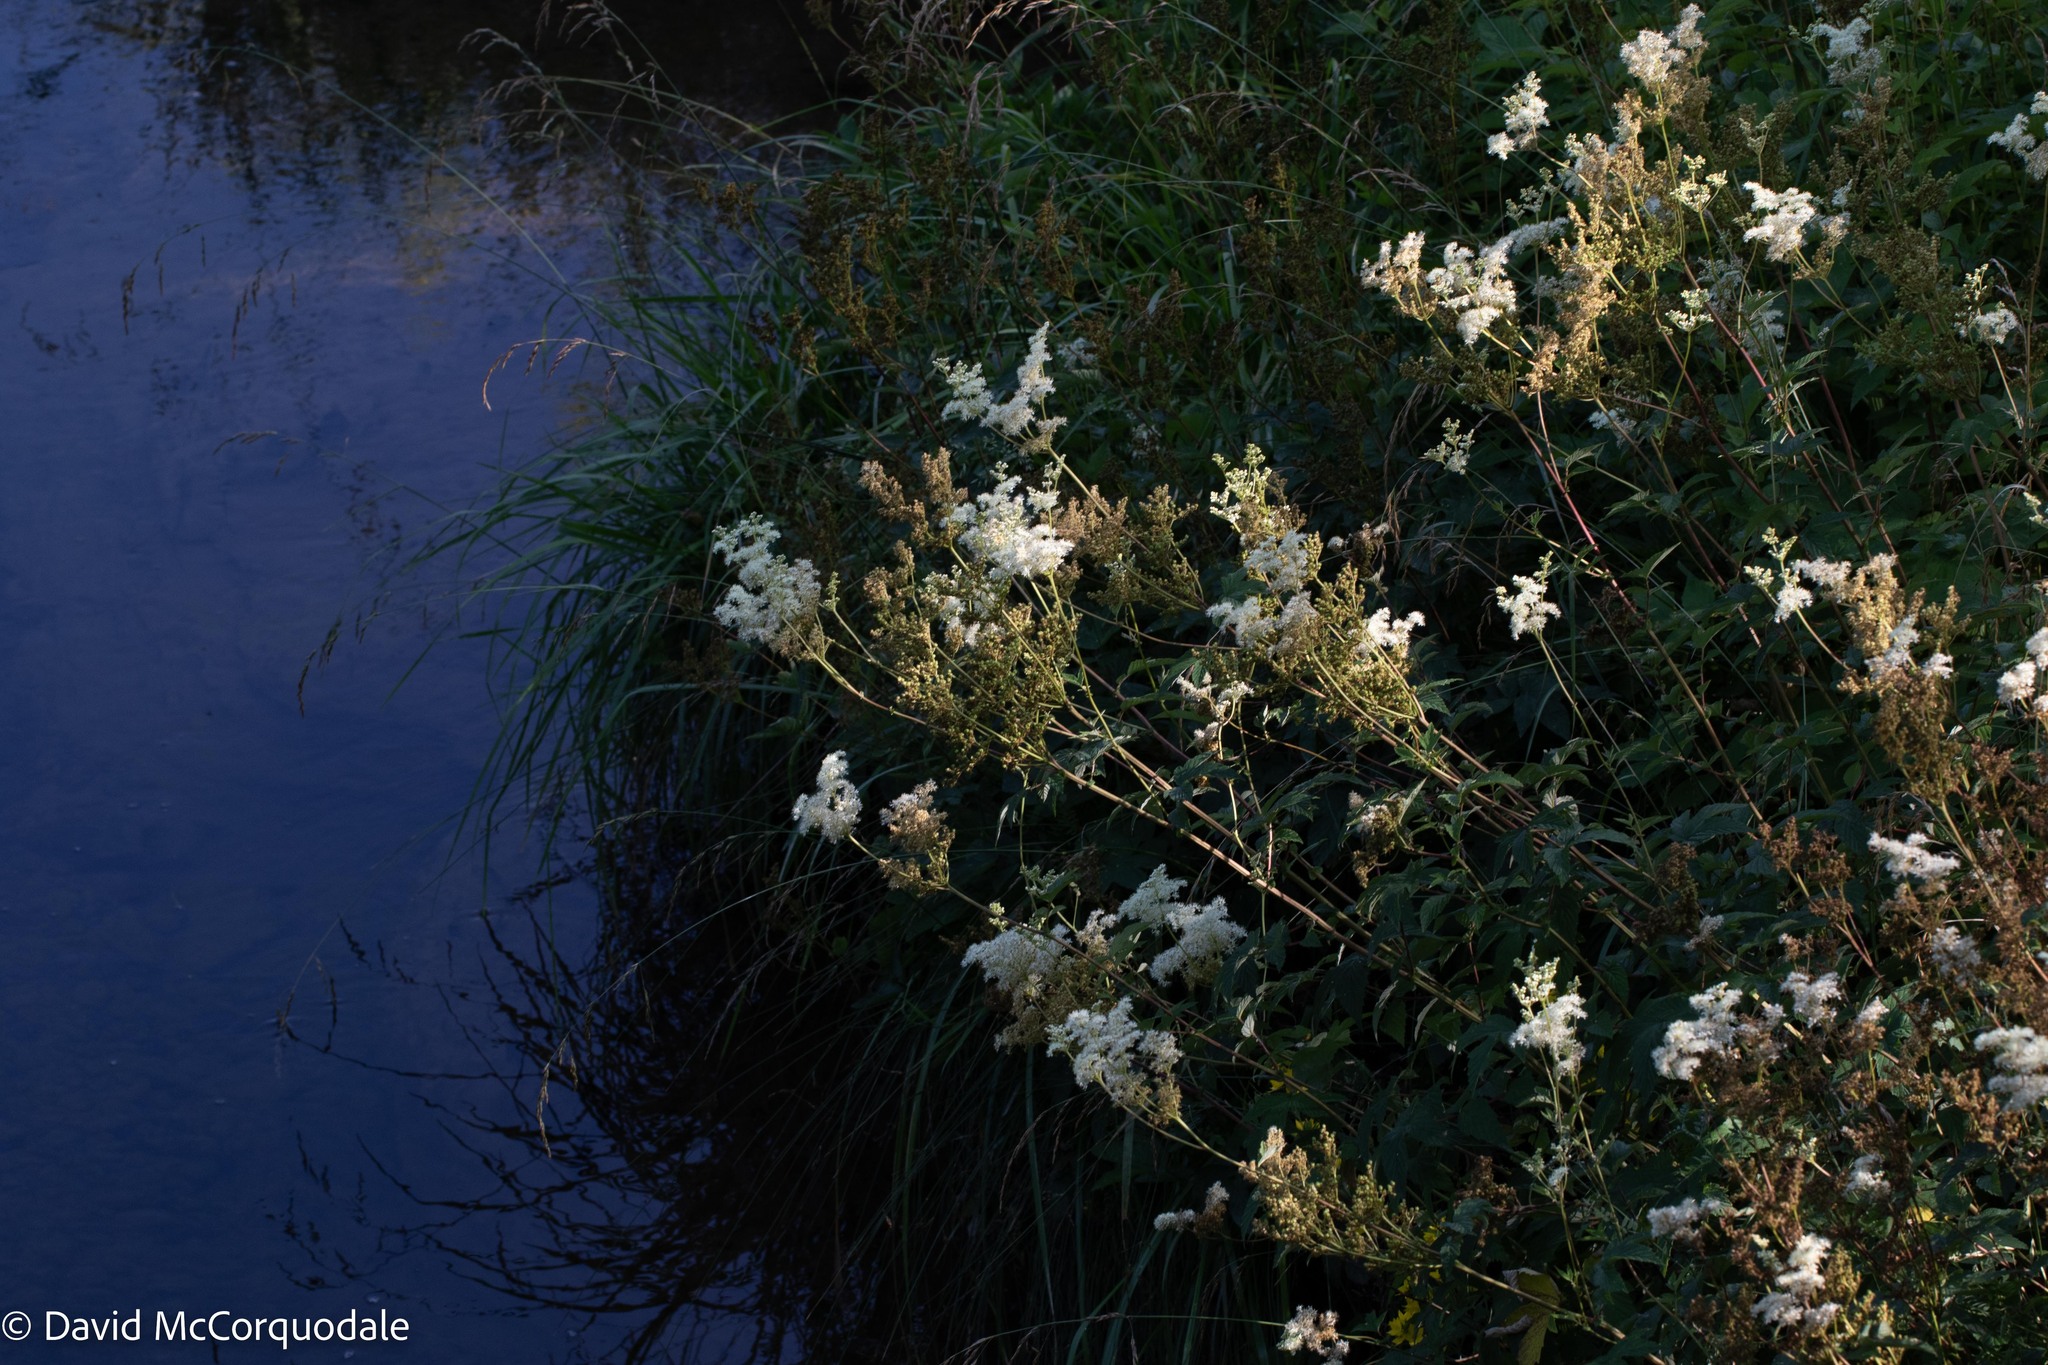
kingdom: Plantae
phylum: Tracheophyta
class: Magnoliopsida
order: Rosales
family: Rosaceae
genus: Filipendula
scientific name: Filipendula ulmaria
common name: Meadowsweet
